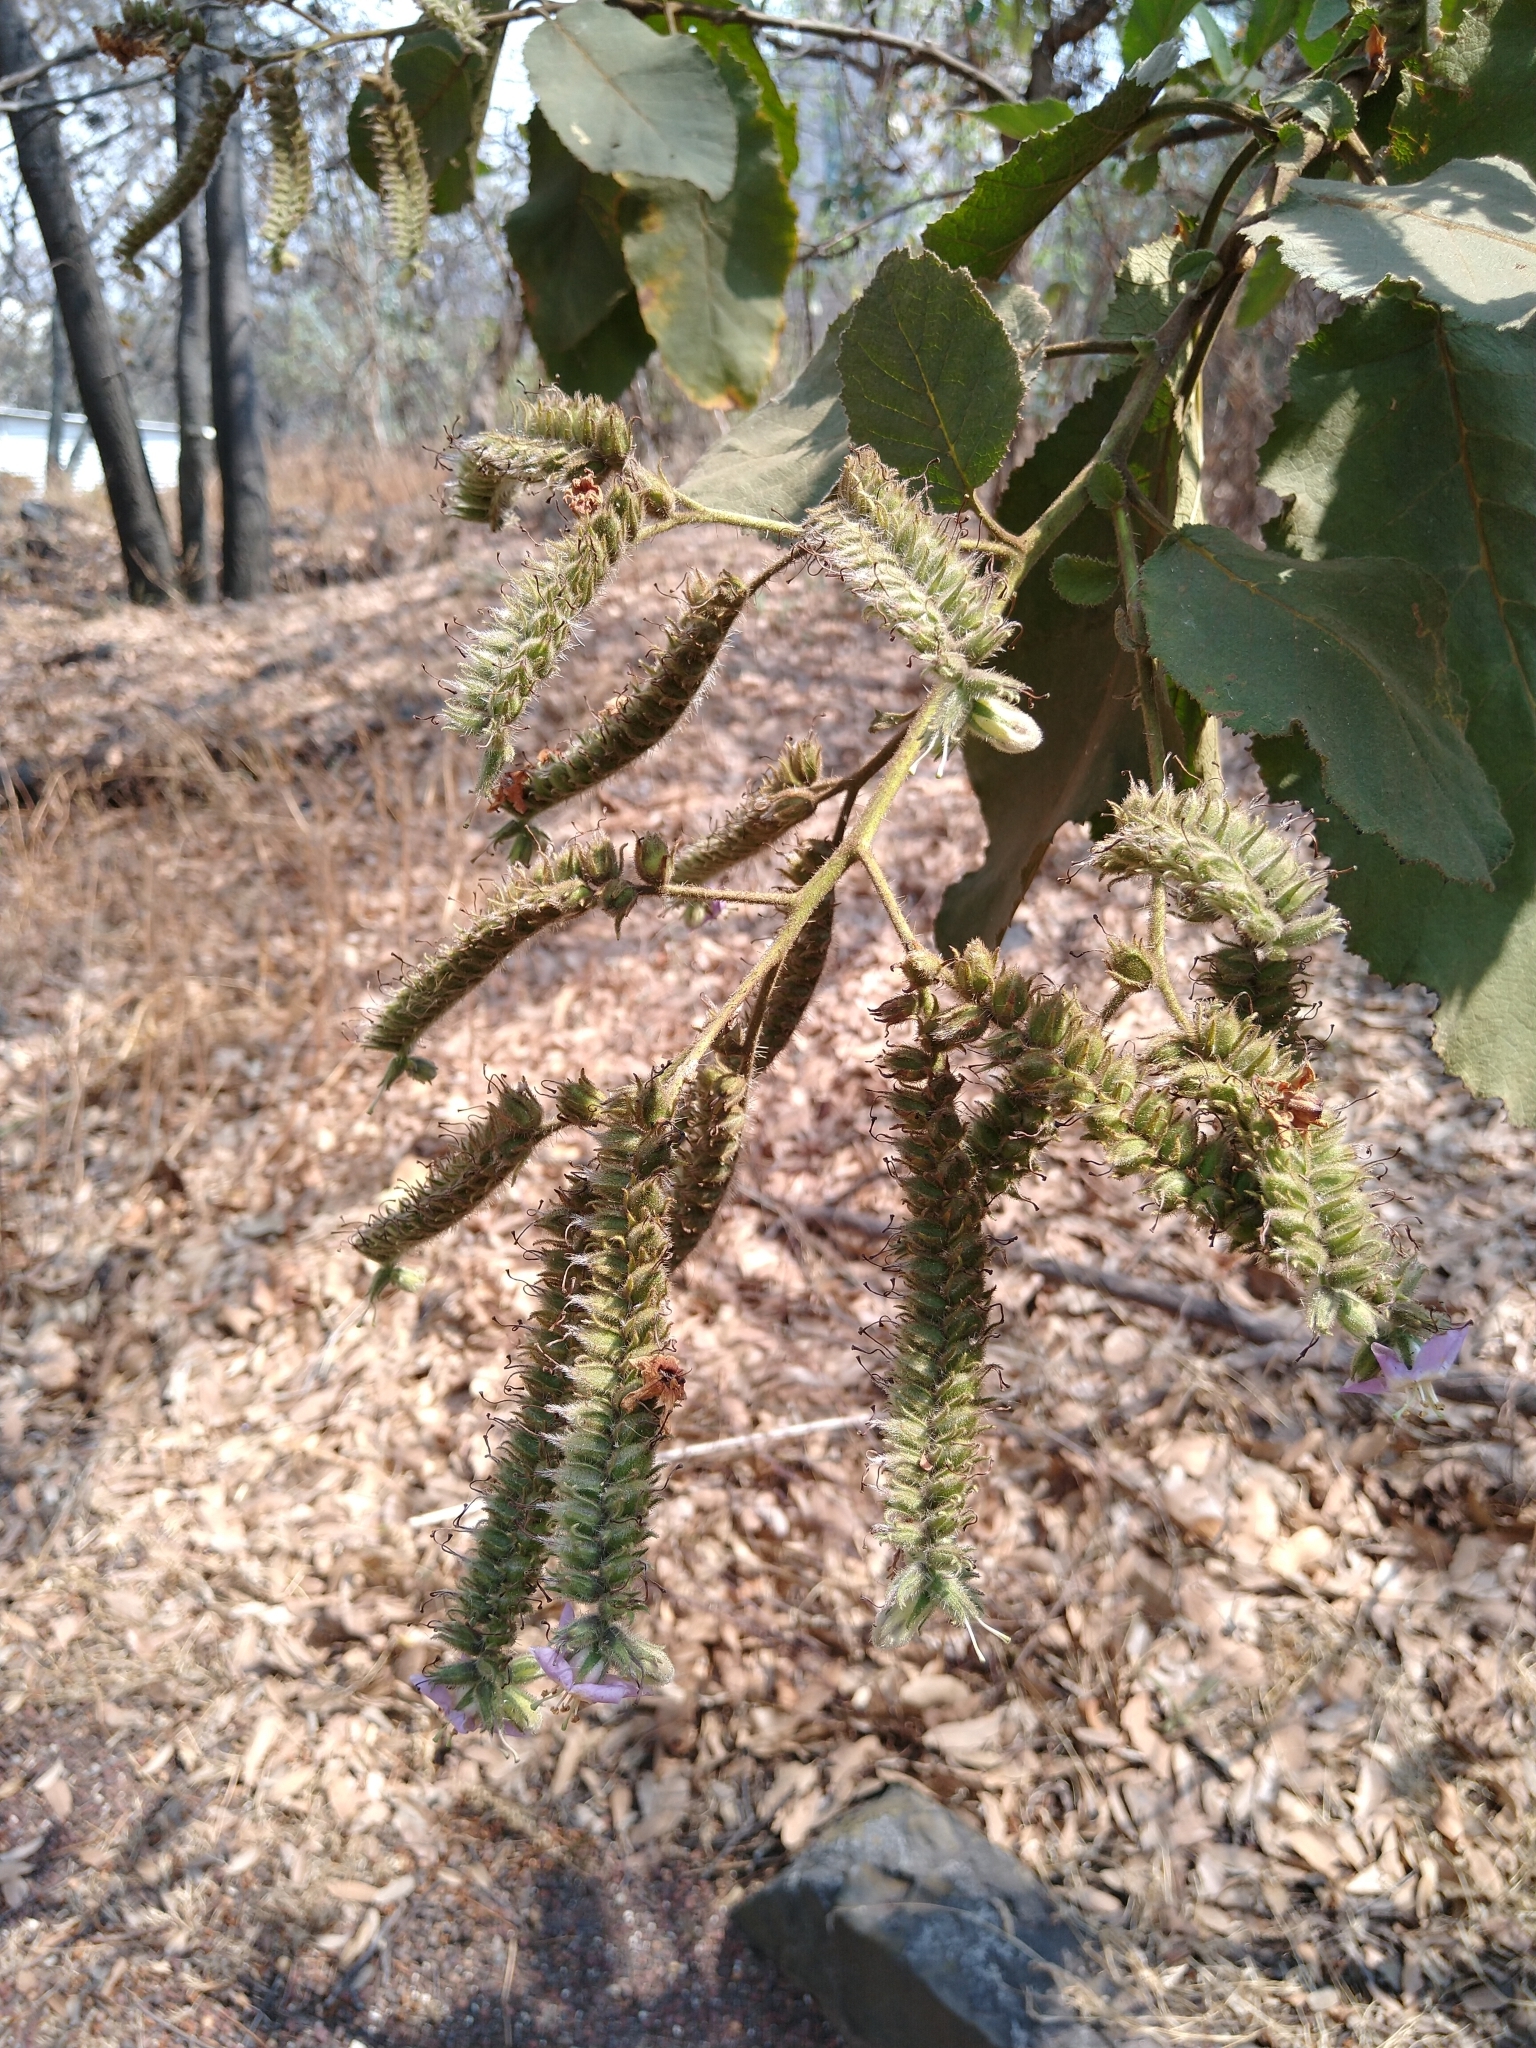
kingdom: Plantae
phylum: Tracheophyta
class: Magnoliopsida
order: Boraginales
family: Namaceae
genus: Wigandia
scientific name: Wigandia urens
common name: Caracus wigandia
